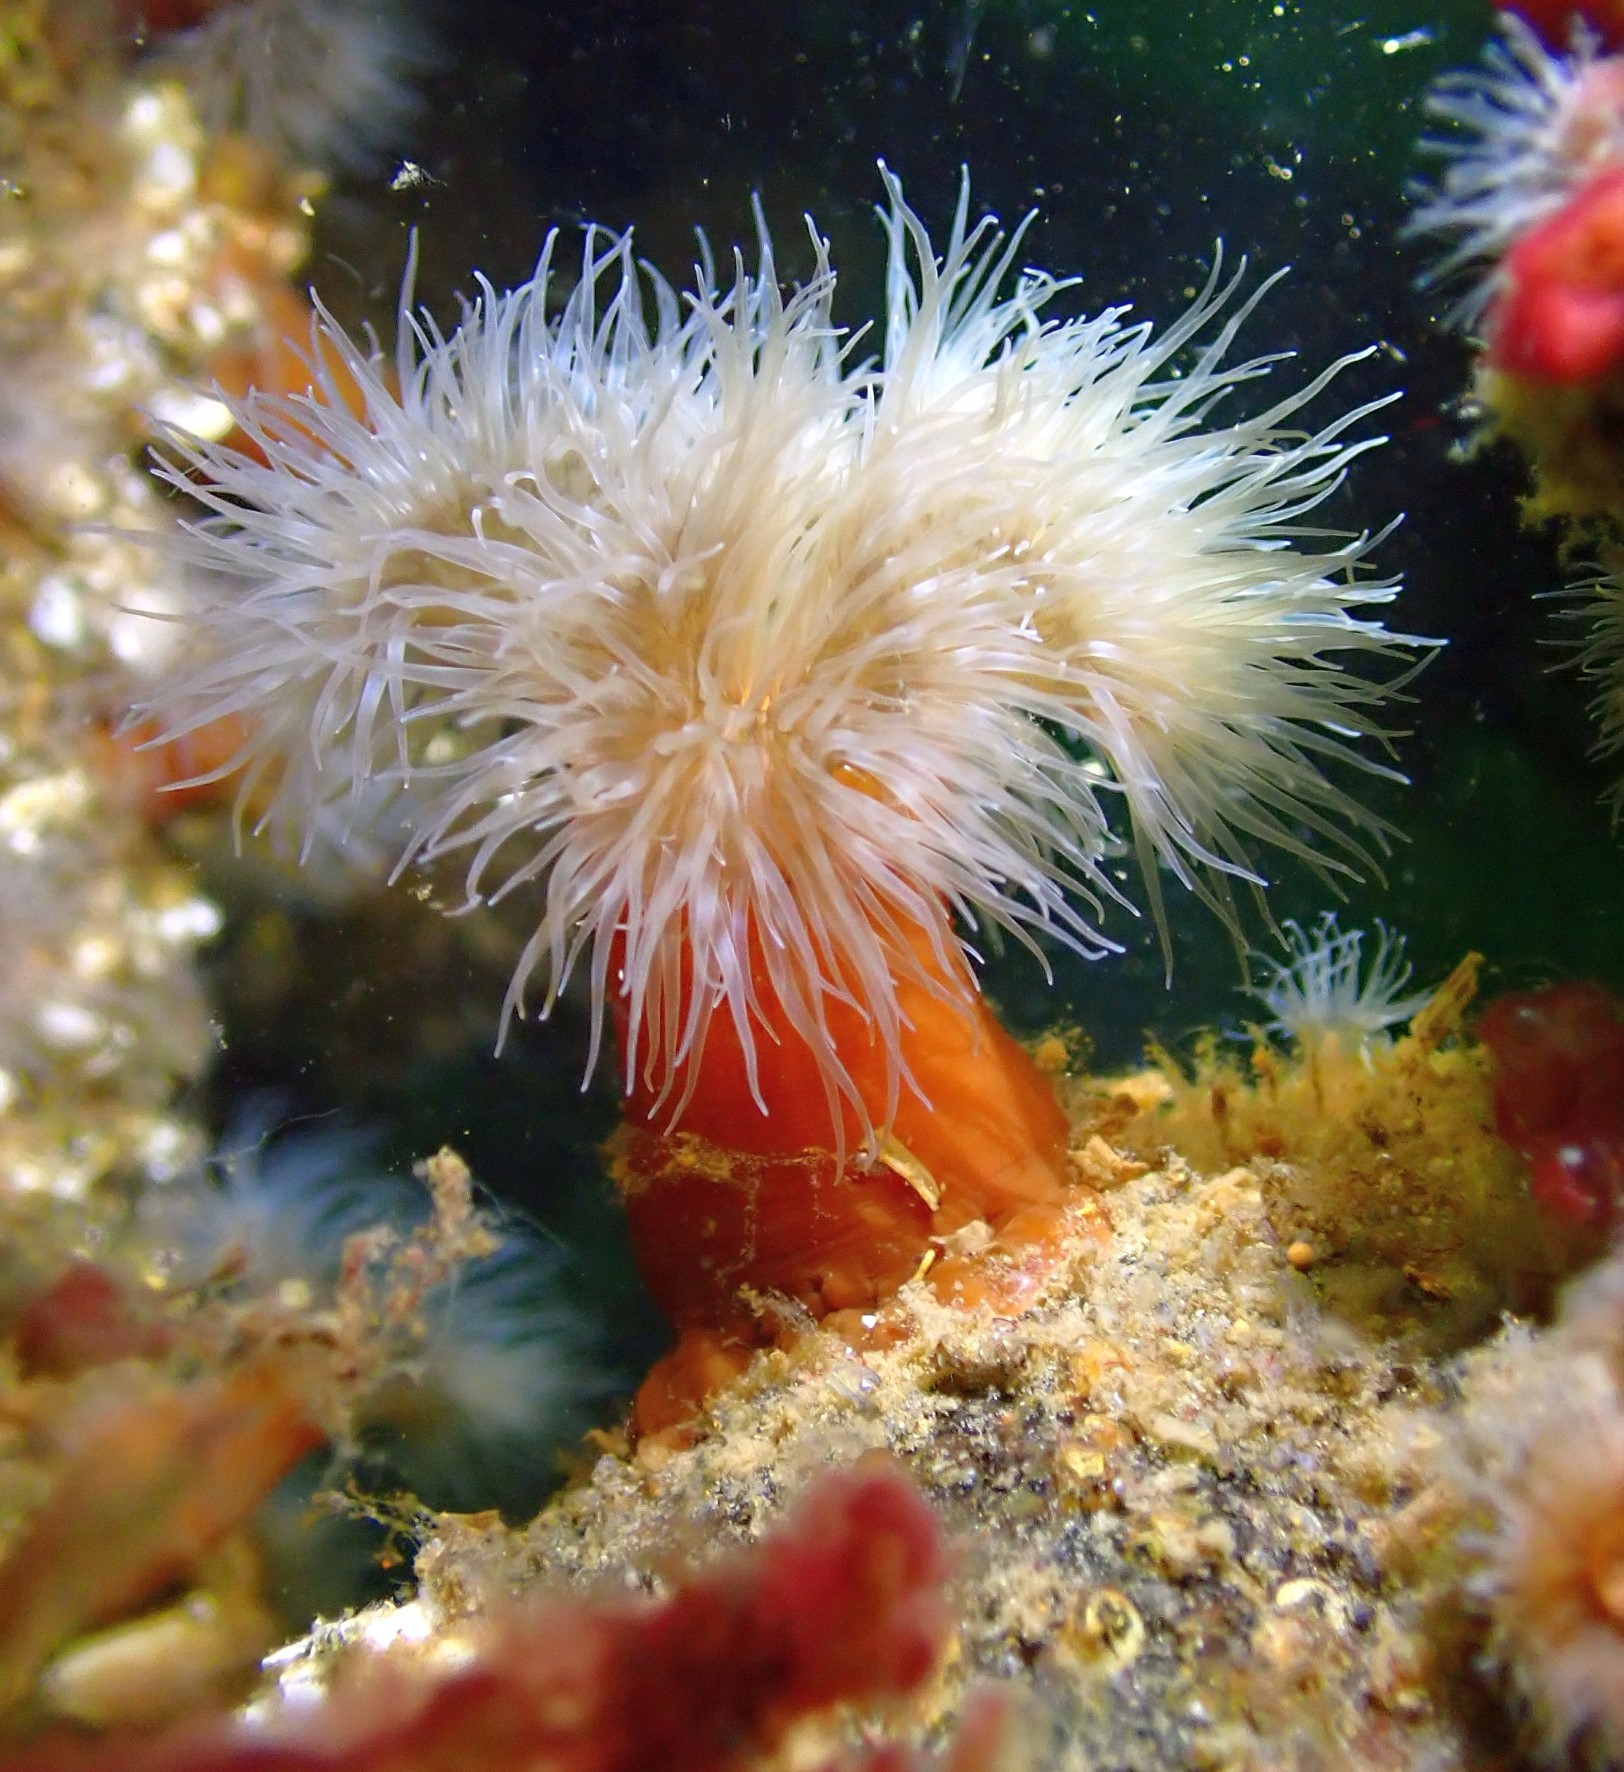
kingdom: Animalia
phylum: Cnidaria
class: Anthozoa
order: Actiniaria
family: Metridiidae
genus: Metridium
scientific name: Metridium senile
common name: Clonal plumose anemone
